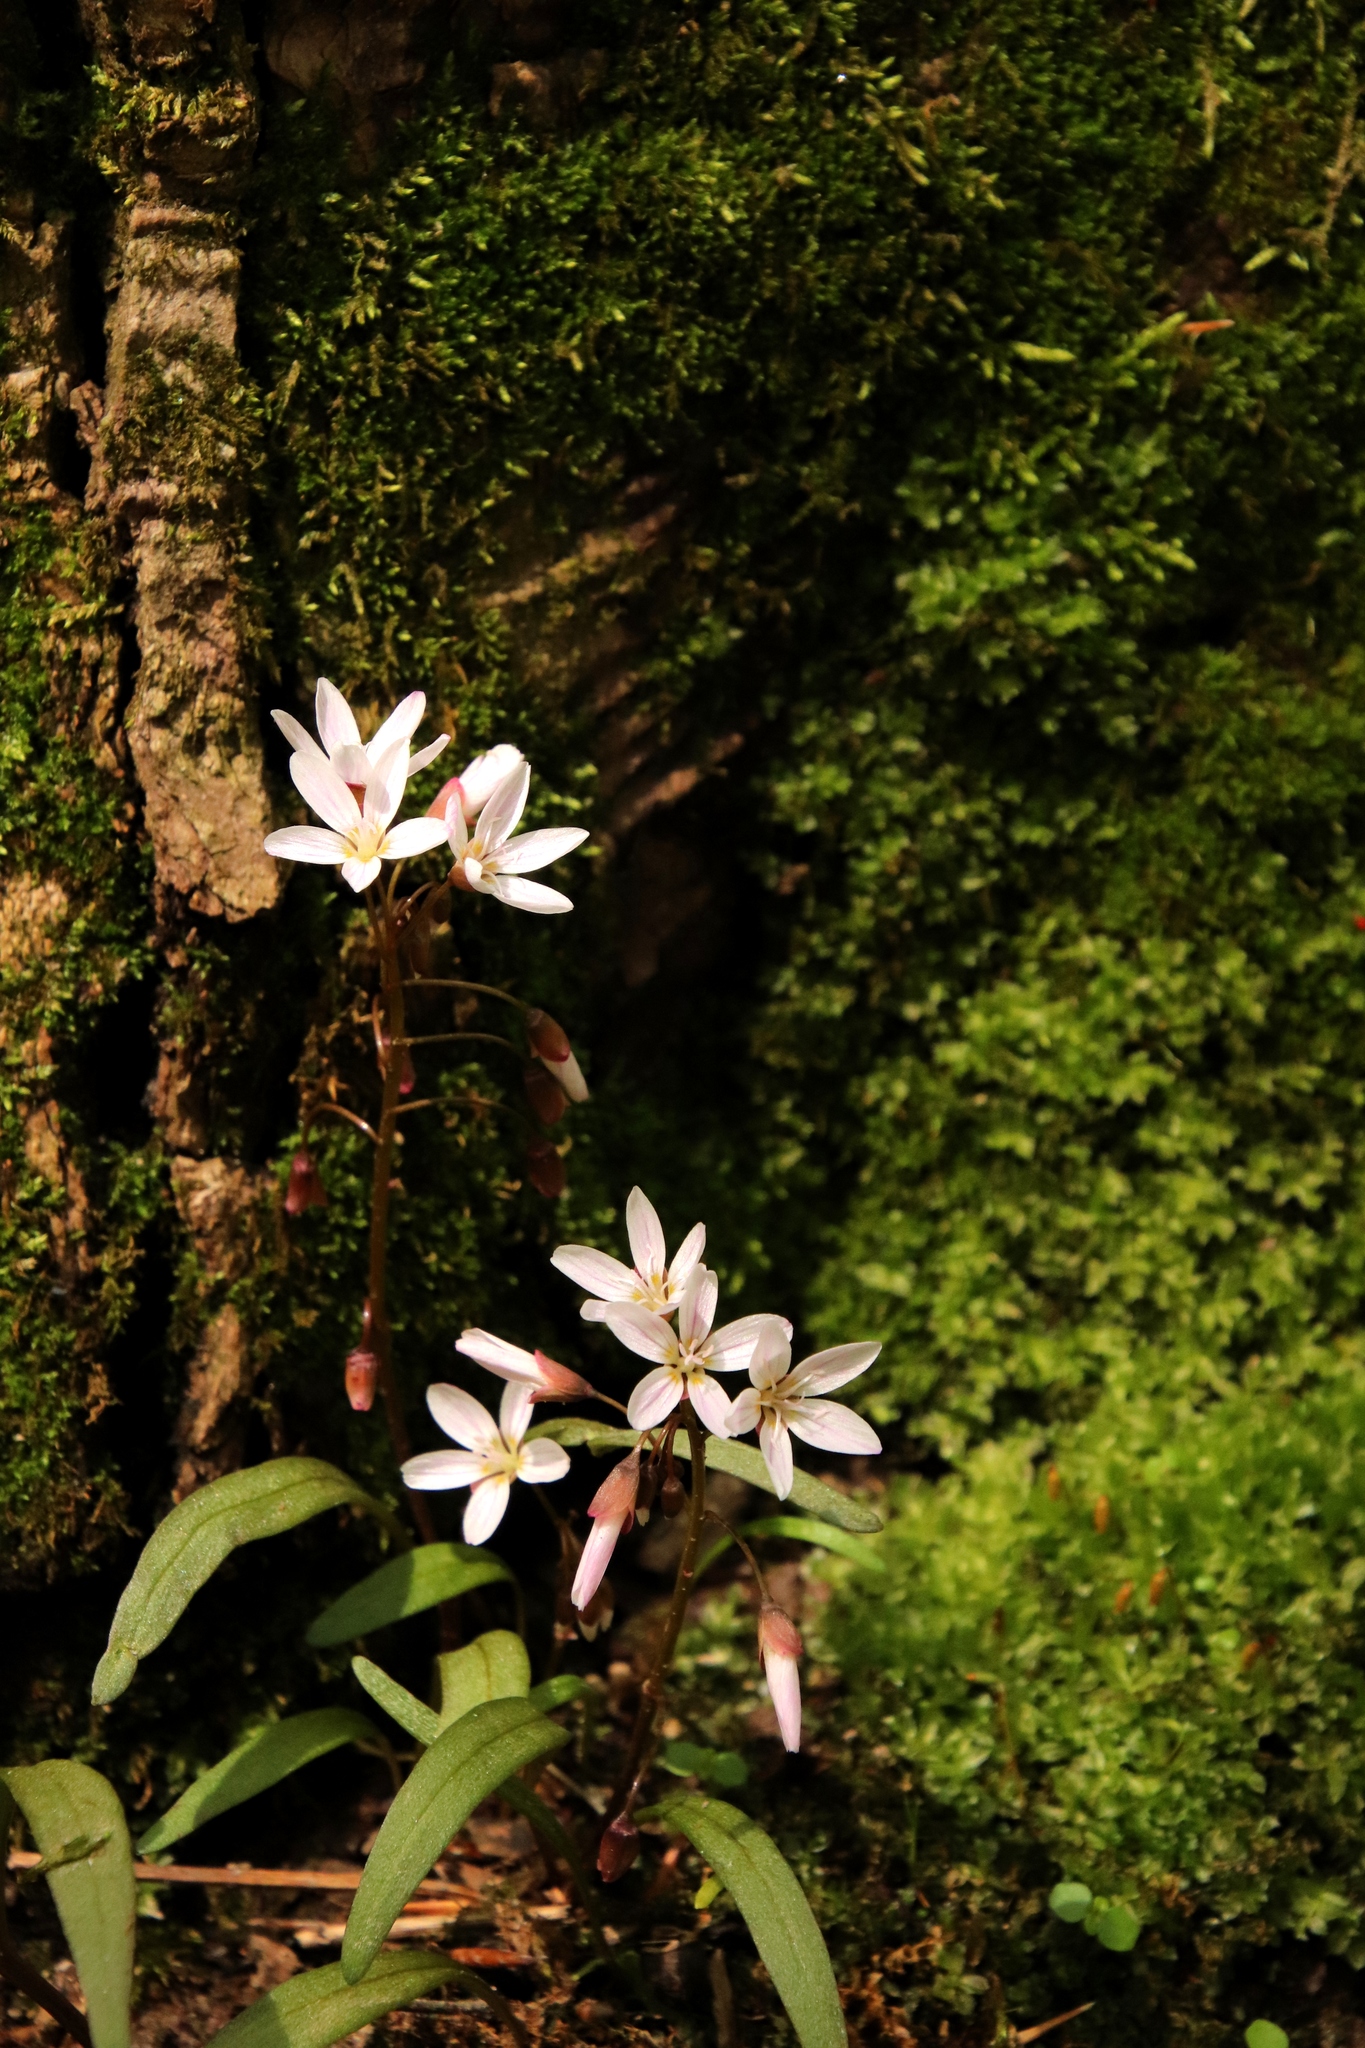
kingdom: Plantae
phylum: Tracheophyta
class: Magnoliopsida
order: Caryophyllales
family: Montiaceae
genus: Claytonia
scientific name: Claytonia virginica
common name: Virginia springbeauty
